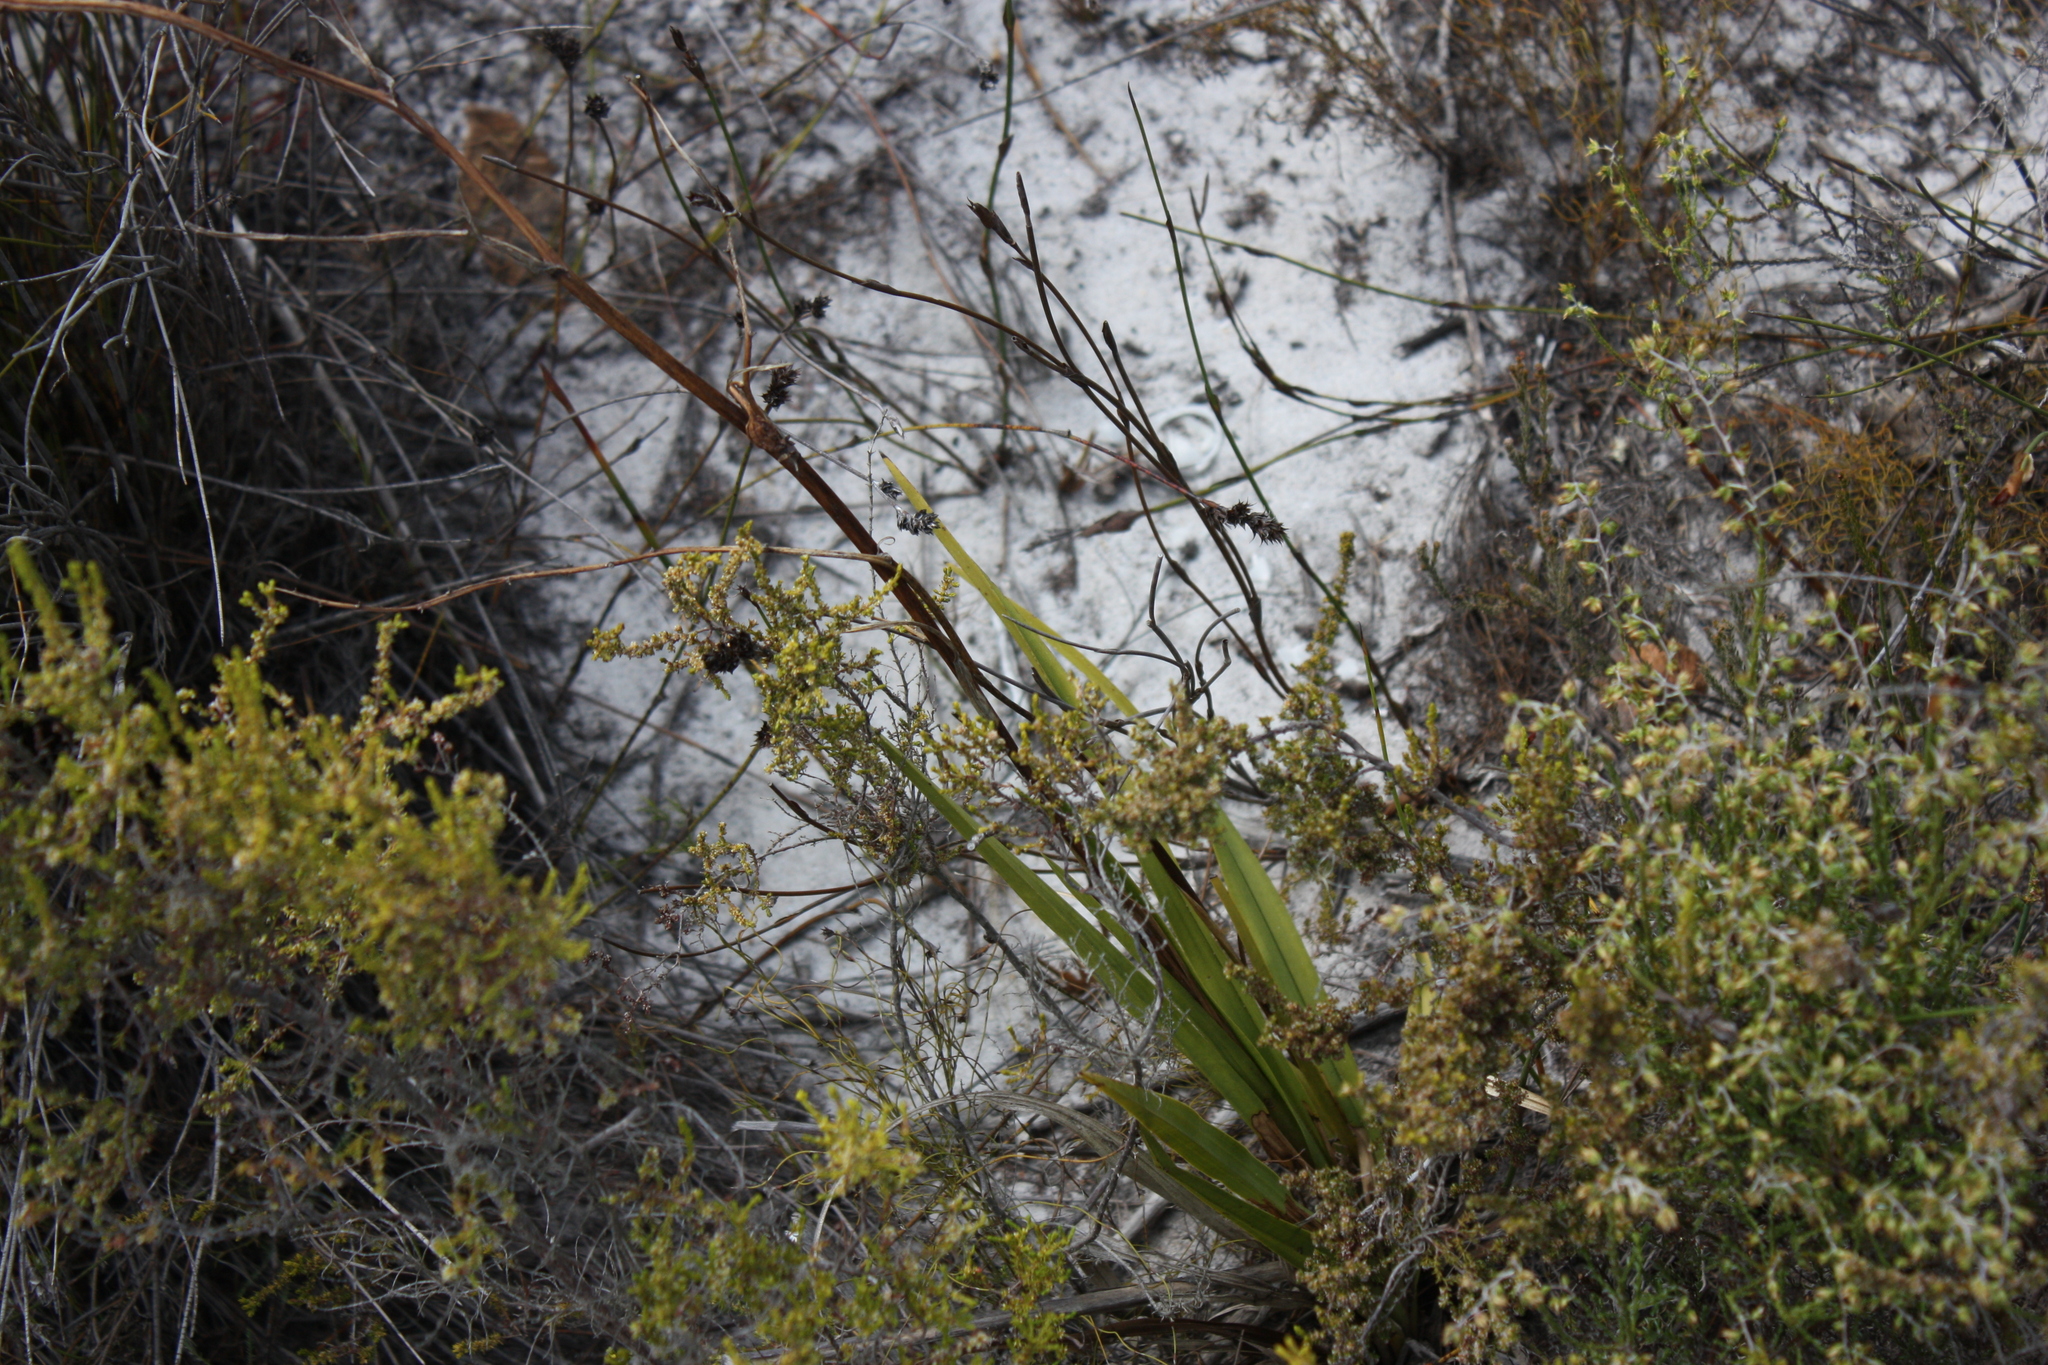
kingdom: Plantae
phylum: Tracheophyta
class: Liliopsida
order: Asparagales
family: Orchidaceae
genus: Eulophia
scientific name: Eulophia lamellata
